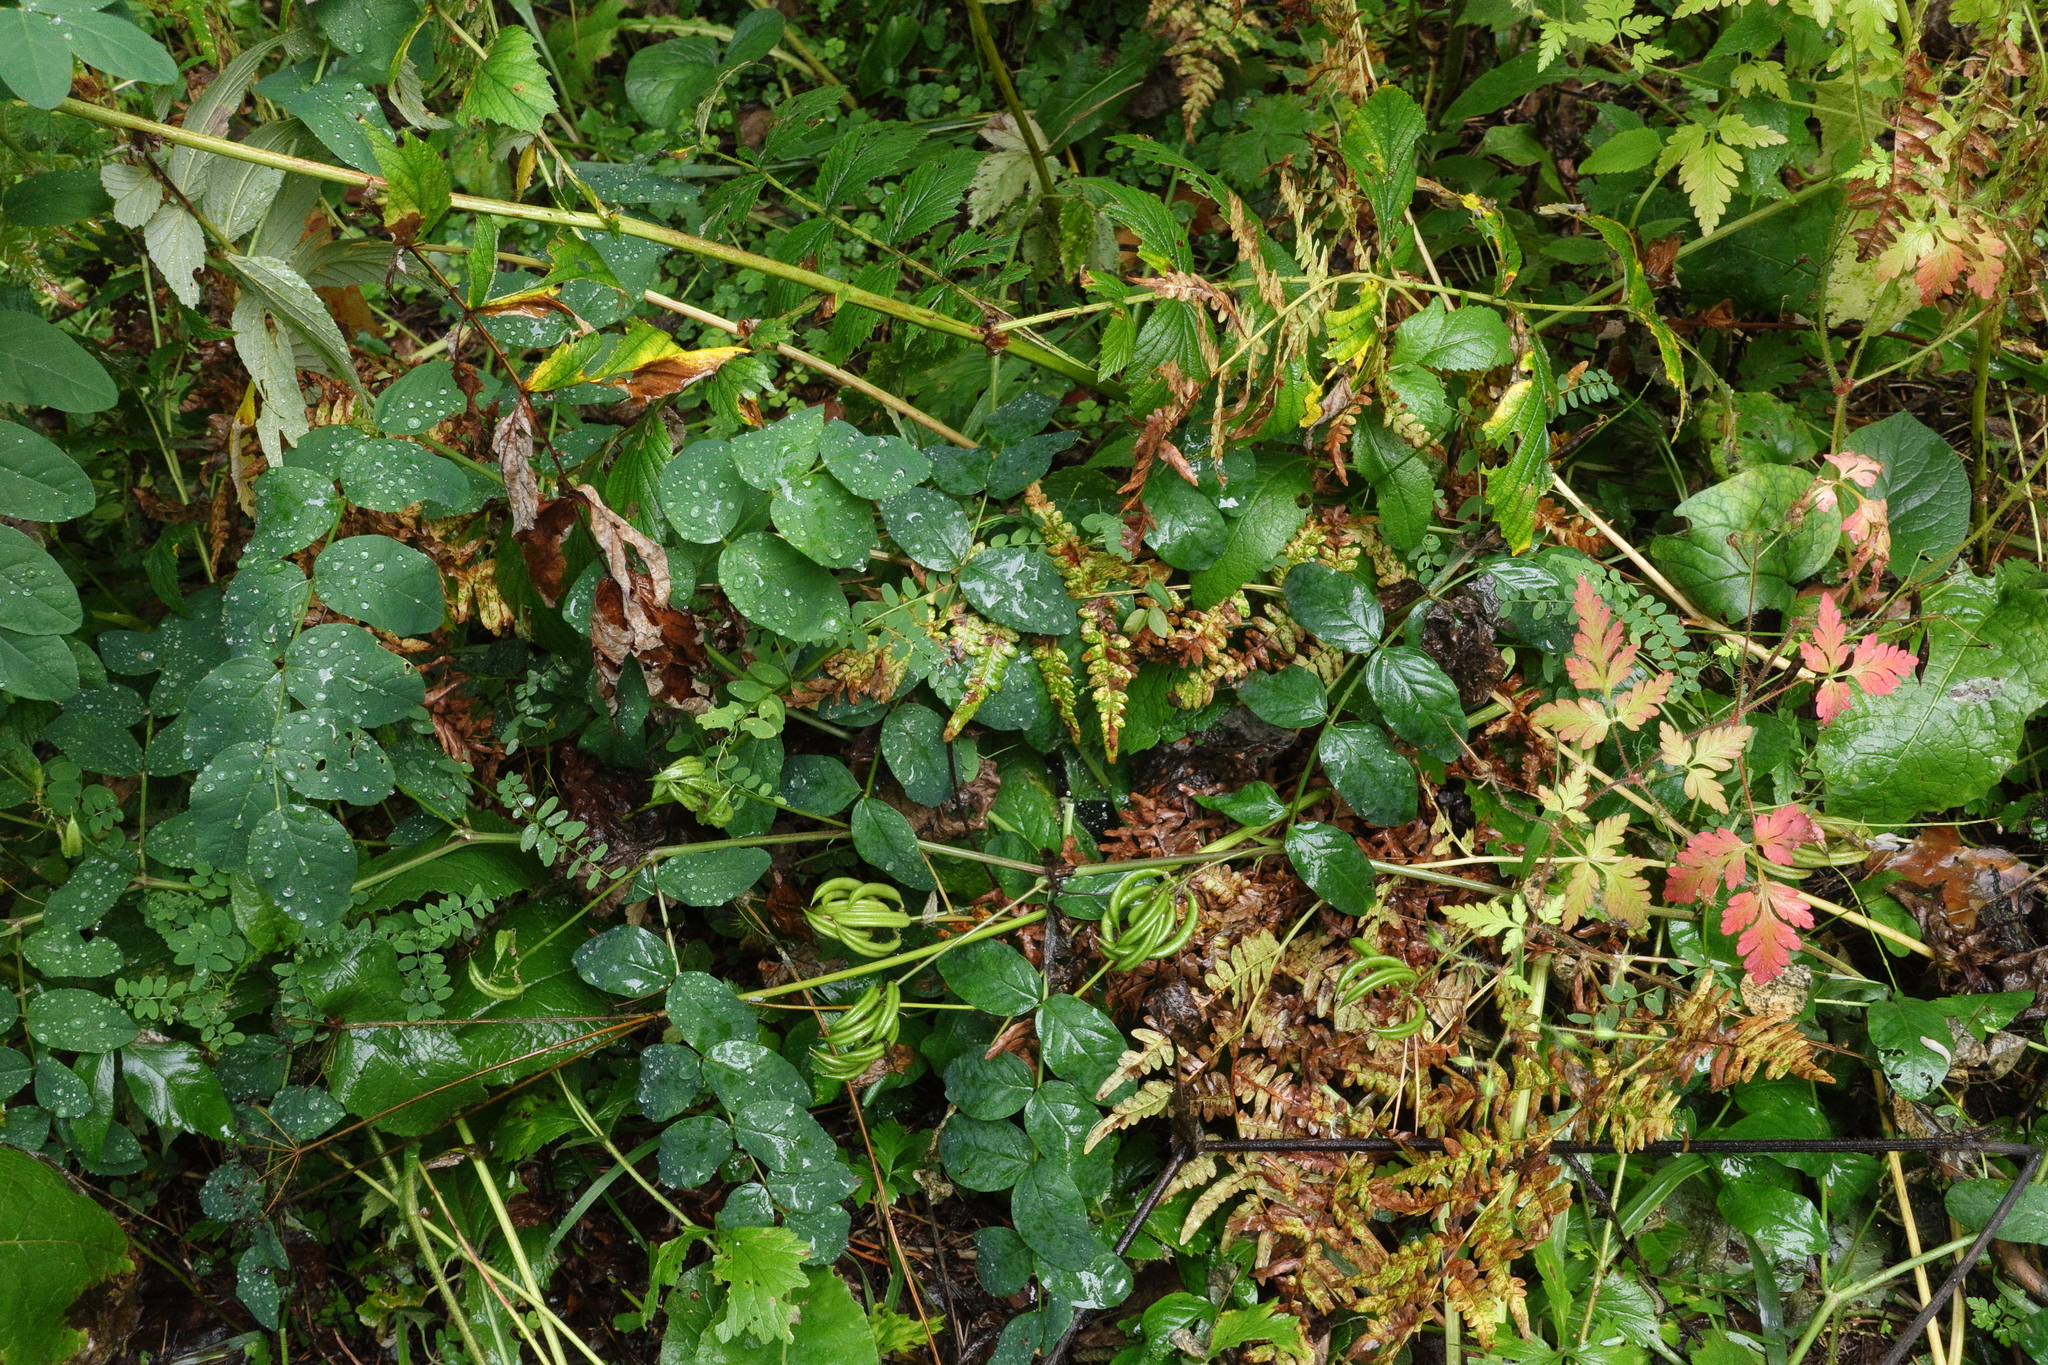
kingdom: Plantae
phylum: Tracheophyta
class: Magnoliopsida
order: Fabales
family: Fabaceae
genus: Astragalus
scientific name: Astragalus glycyphyllos
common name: Wild liquorice
